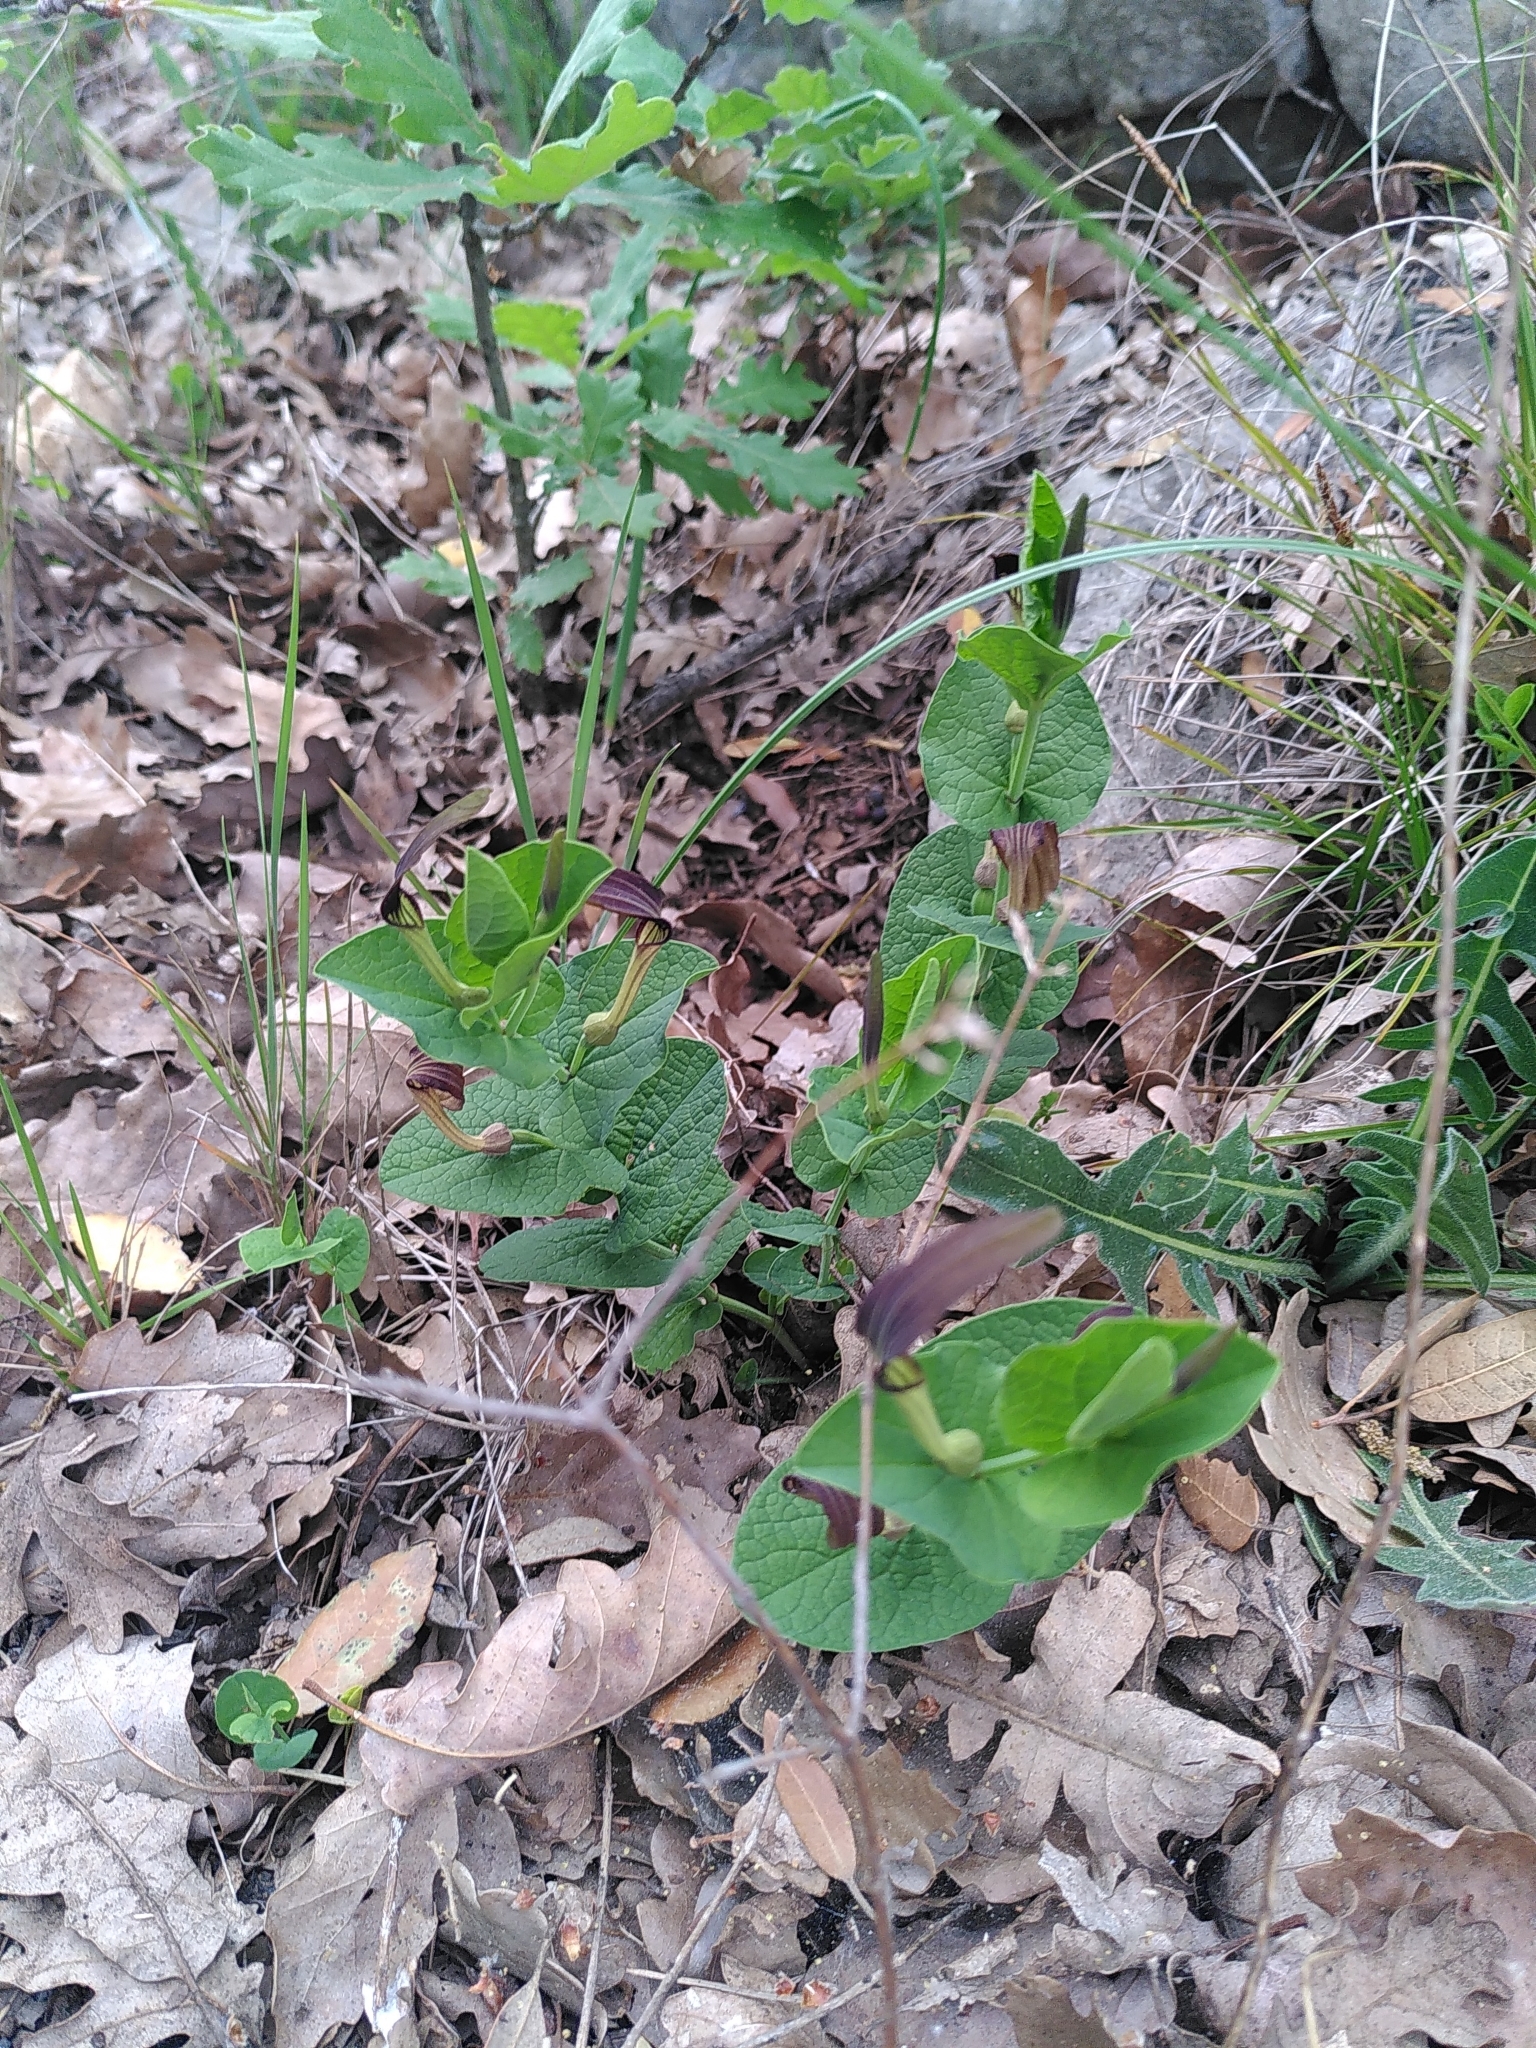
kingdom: Plantae
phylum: Tracheophyta
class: Magnoliopsida
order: Piperales
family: Aristolochiaceae
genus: Aristolochia
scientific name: Aristolochia rotunda
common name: Smearwort
